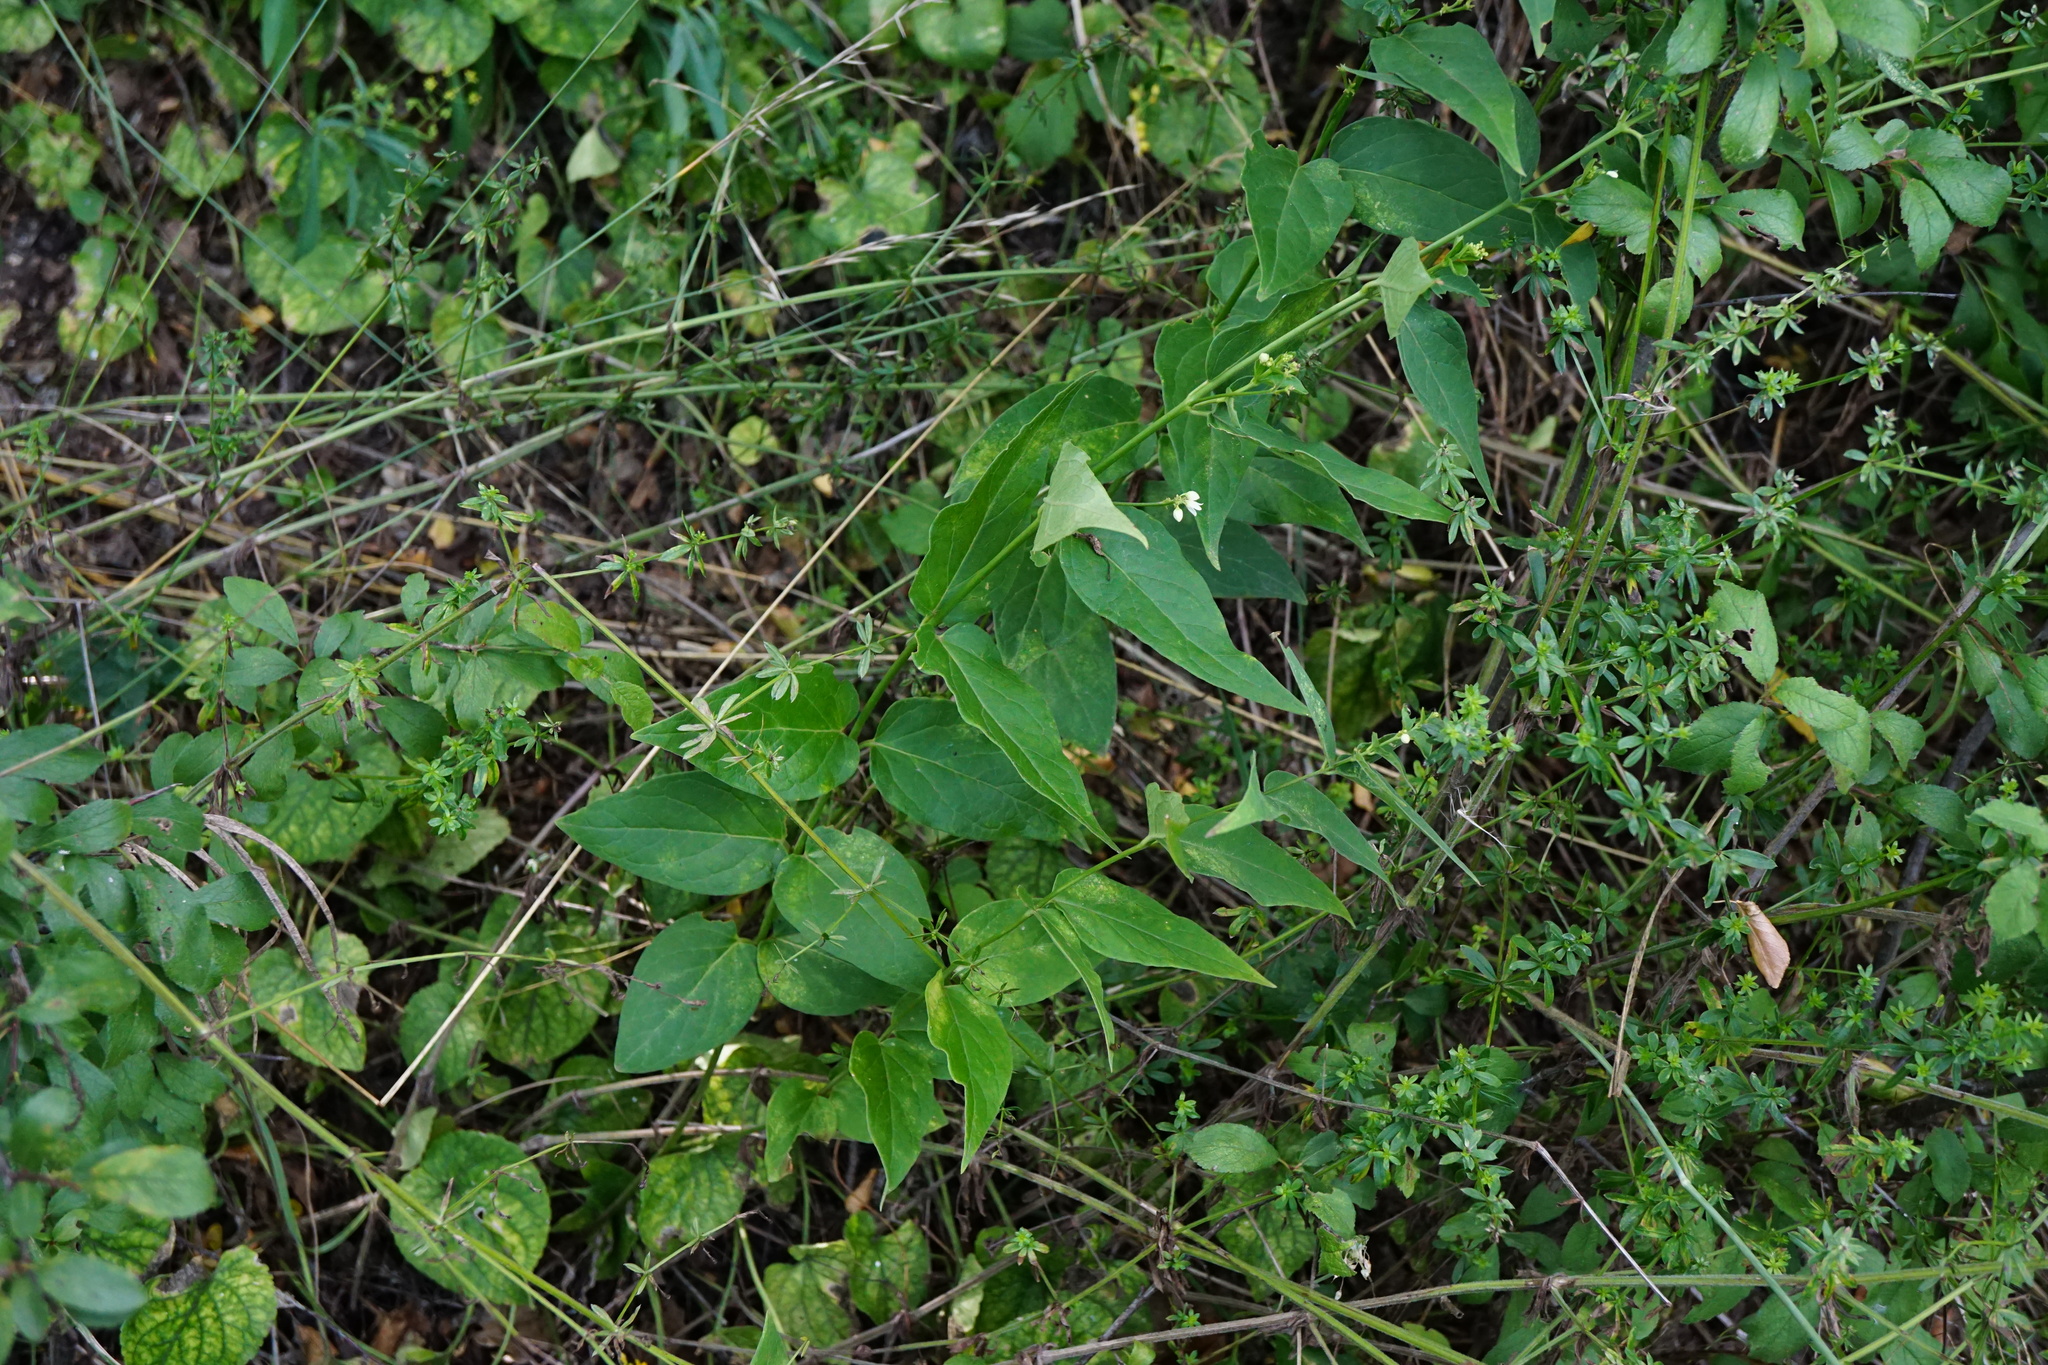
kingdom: Plantae
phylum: Tracheophyta
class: Magnoliopsida
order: Gentianales
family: Apocynaceae
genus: Vincetoxicum
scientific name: Vincetoxicum hirundinaria
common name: White swallowwort
